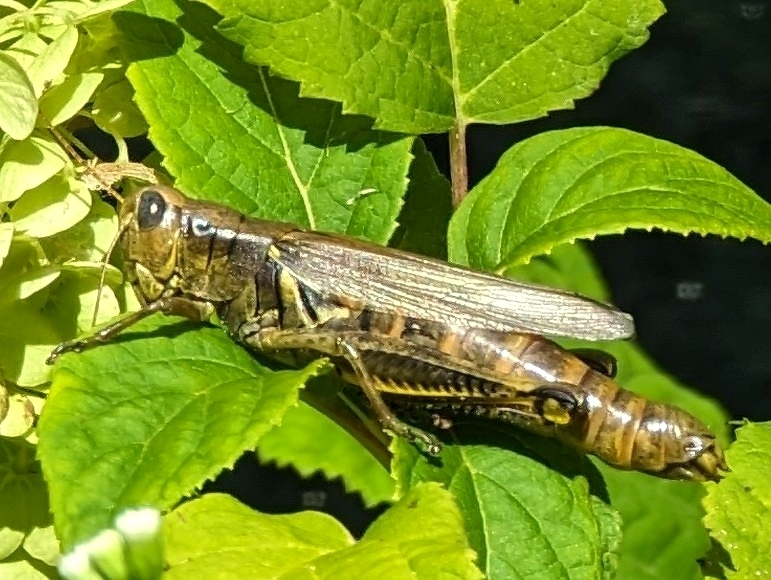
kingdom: Animalia
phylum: Arthropoda
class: Insecta
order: Orthoptera
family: Acrididae
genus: Melanoplus
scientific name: Melanoplus differentialis
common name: Differential grasshopper
